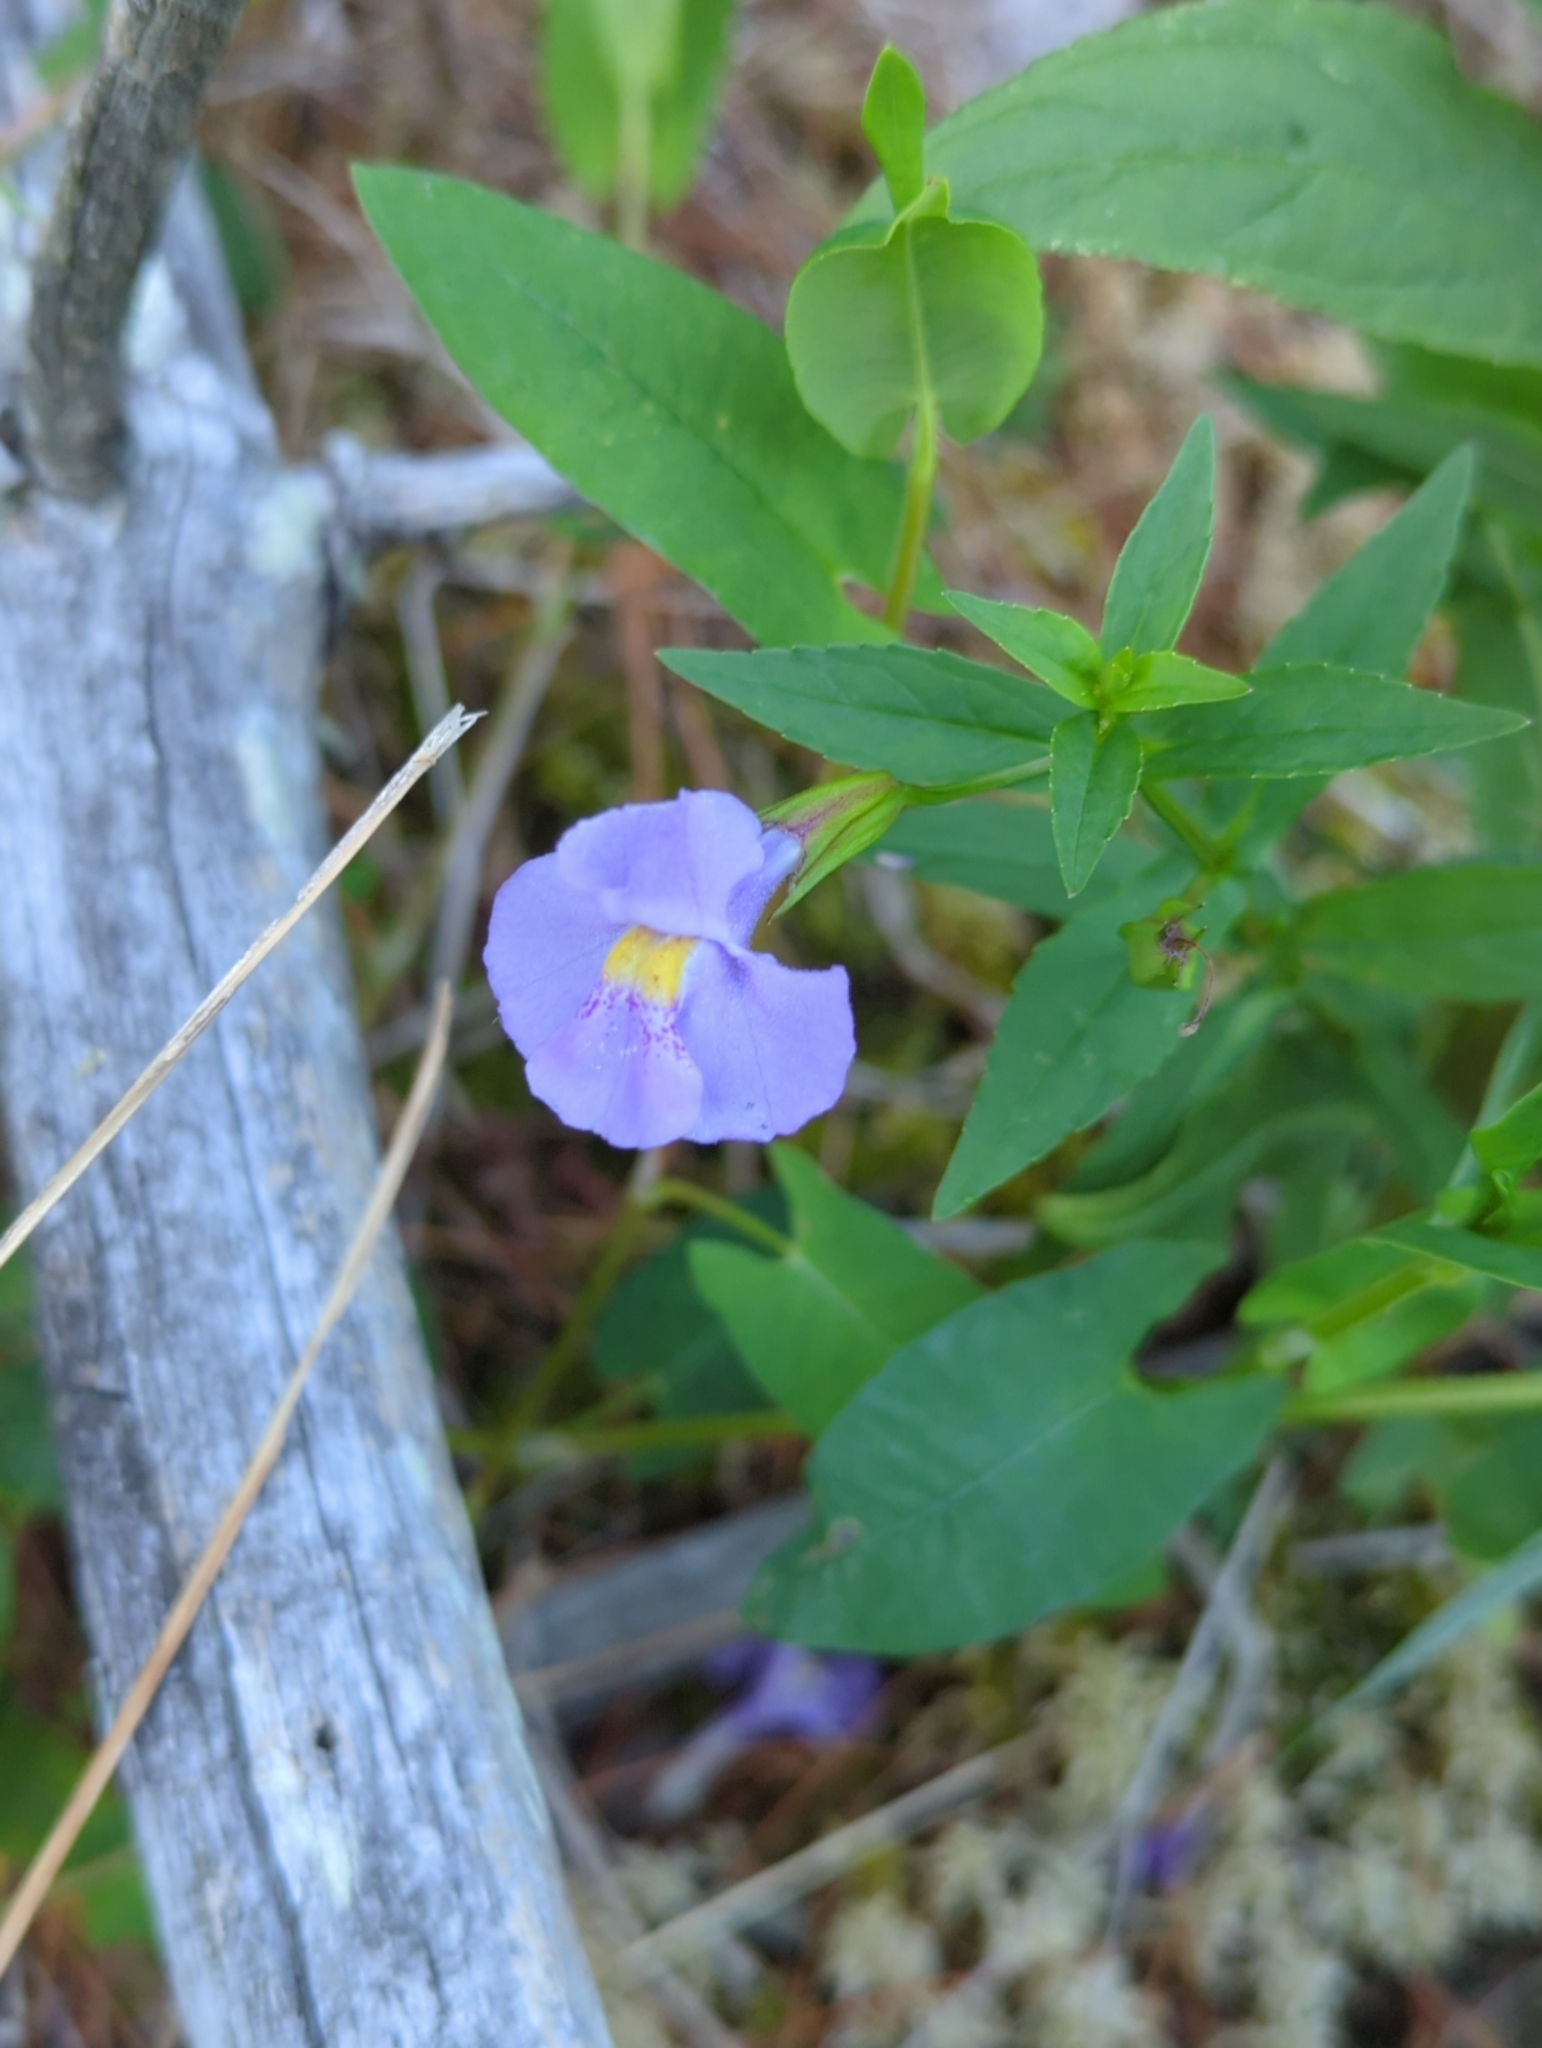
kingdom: Plantae
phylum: Tracheophyta
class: Magnoliopsida
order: Lamiales
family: Phrymaceae
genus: Mimulus
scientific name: Mimulus ringens
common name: Allegheny monkeyflower
